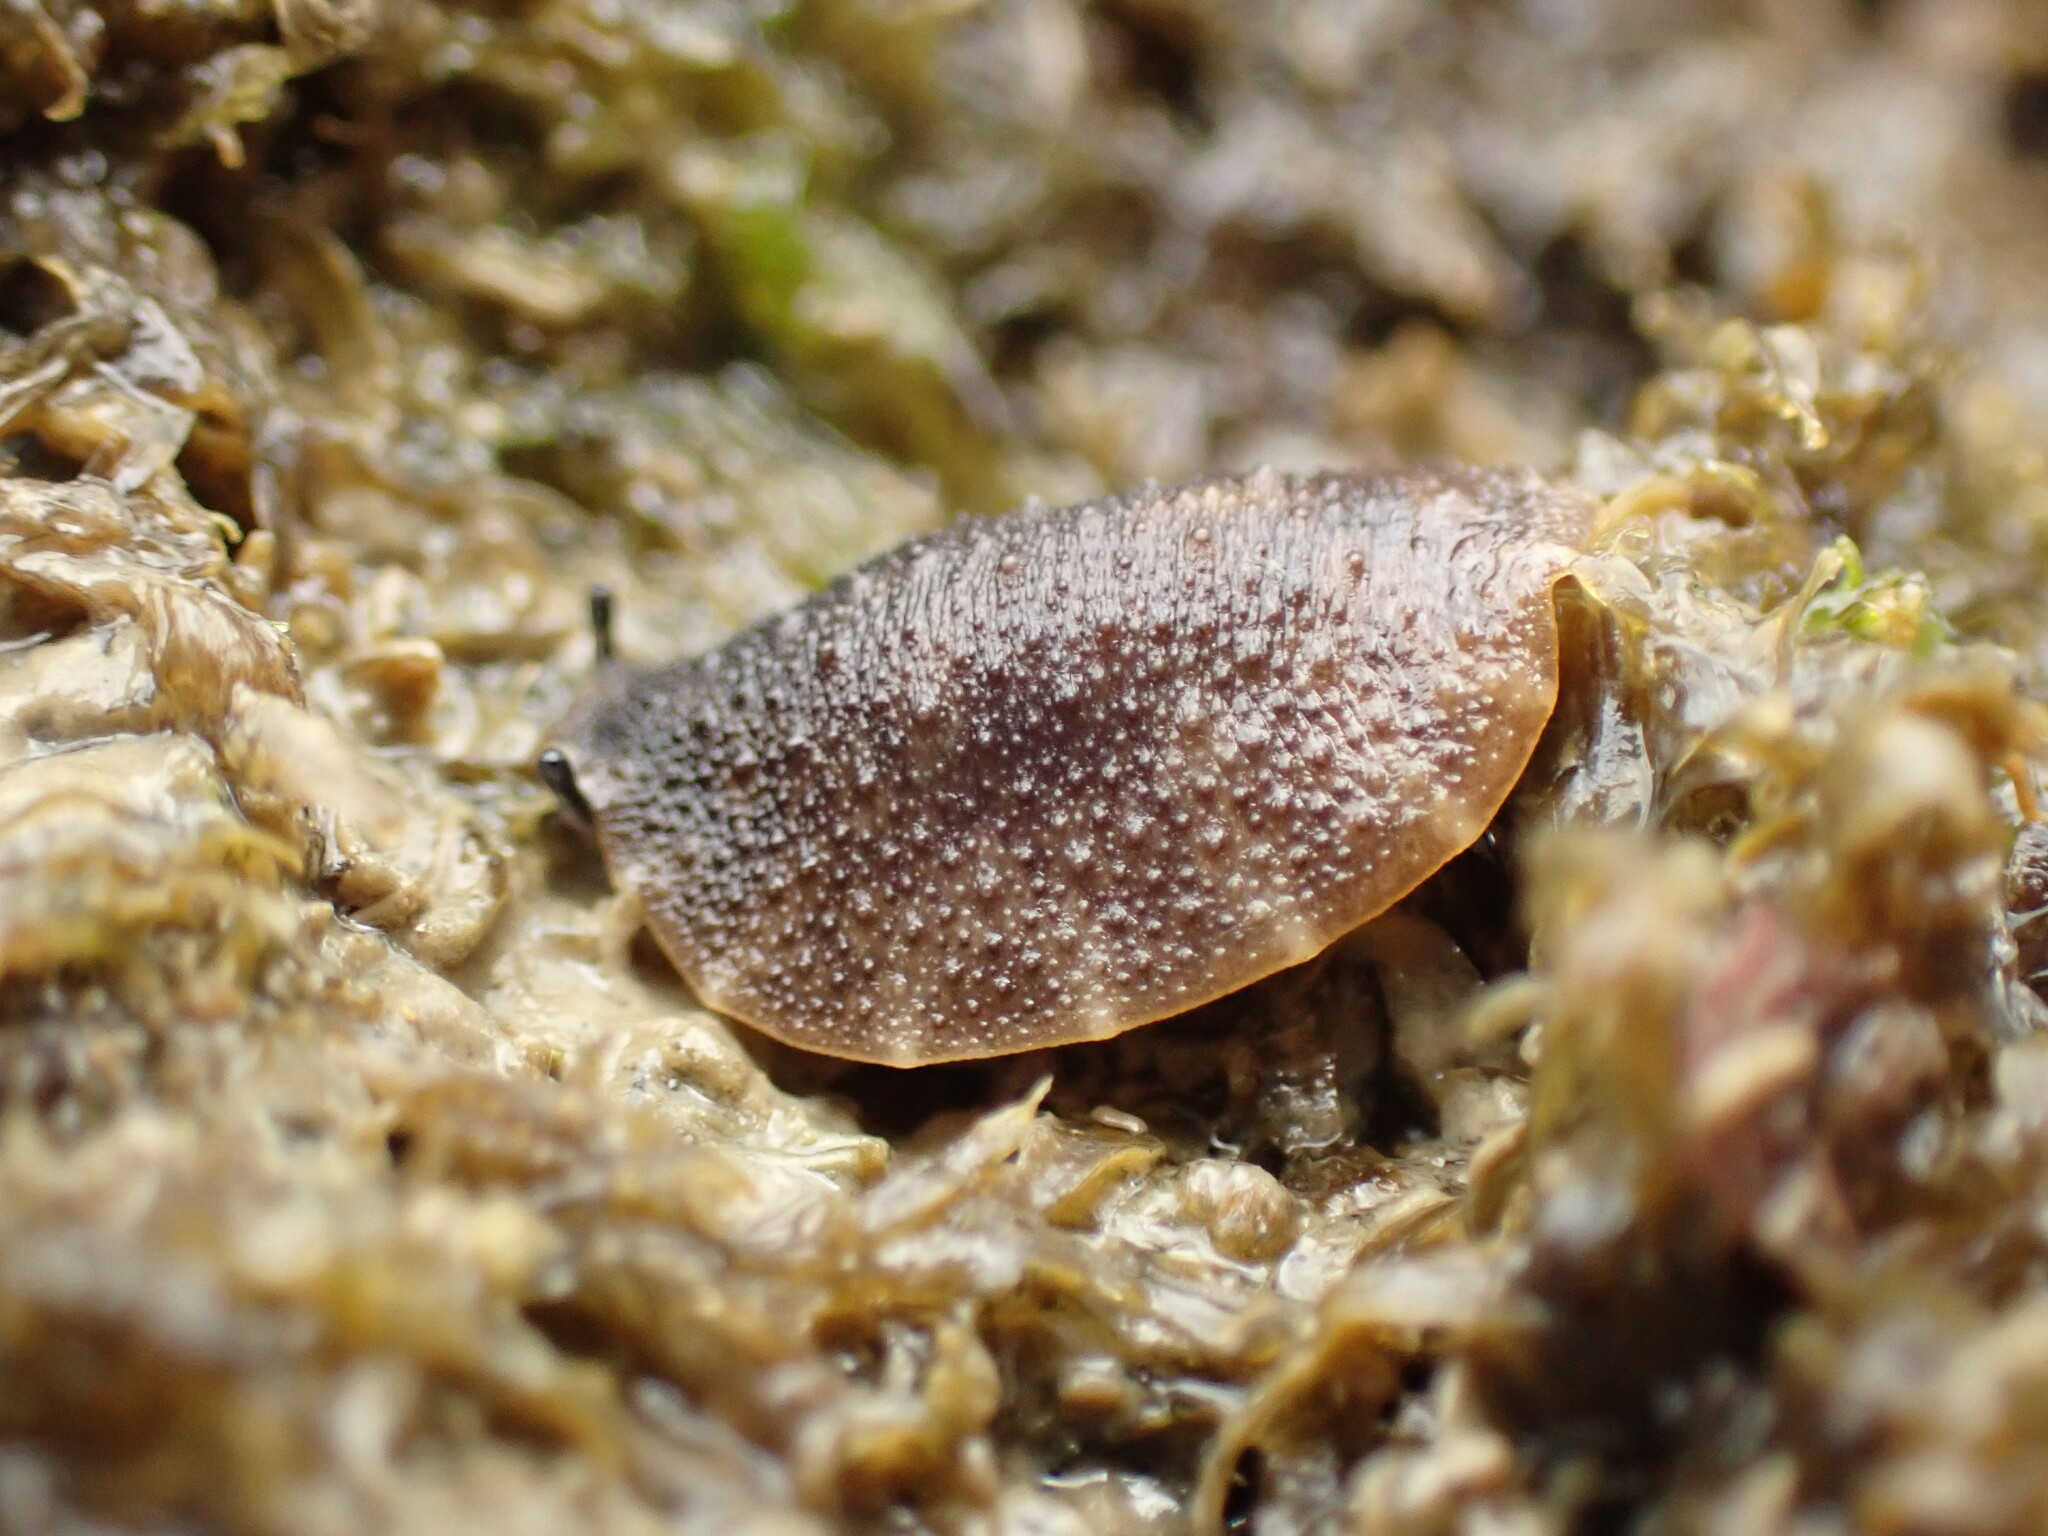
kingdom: Animalia
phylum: Mollusca
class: Gastropoda
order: Systellommatophora
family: Onchidiidae
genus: Onchidella
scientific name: Onchidella nigricans
